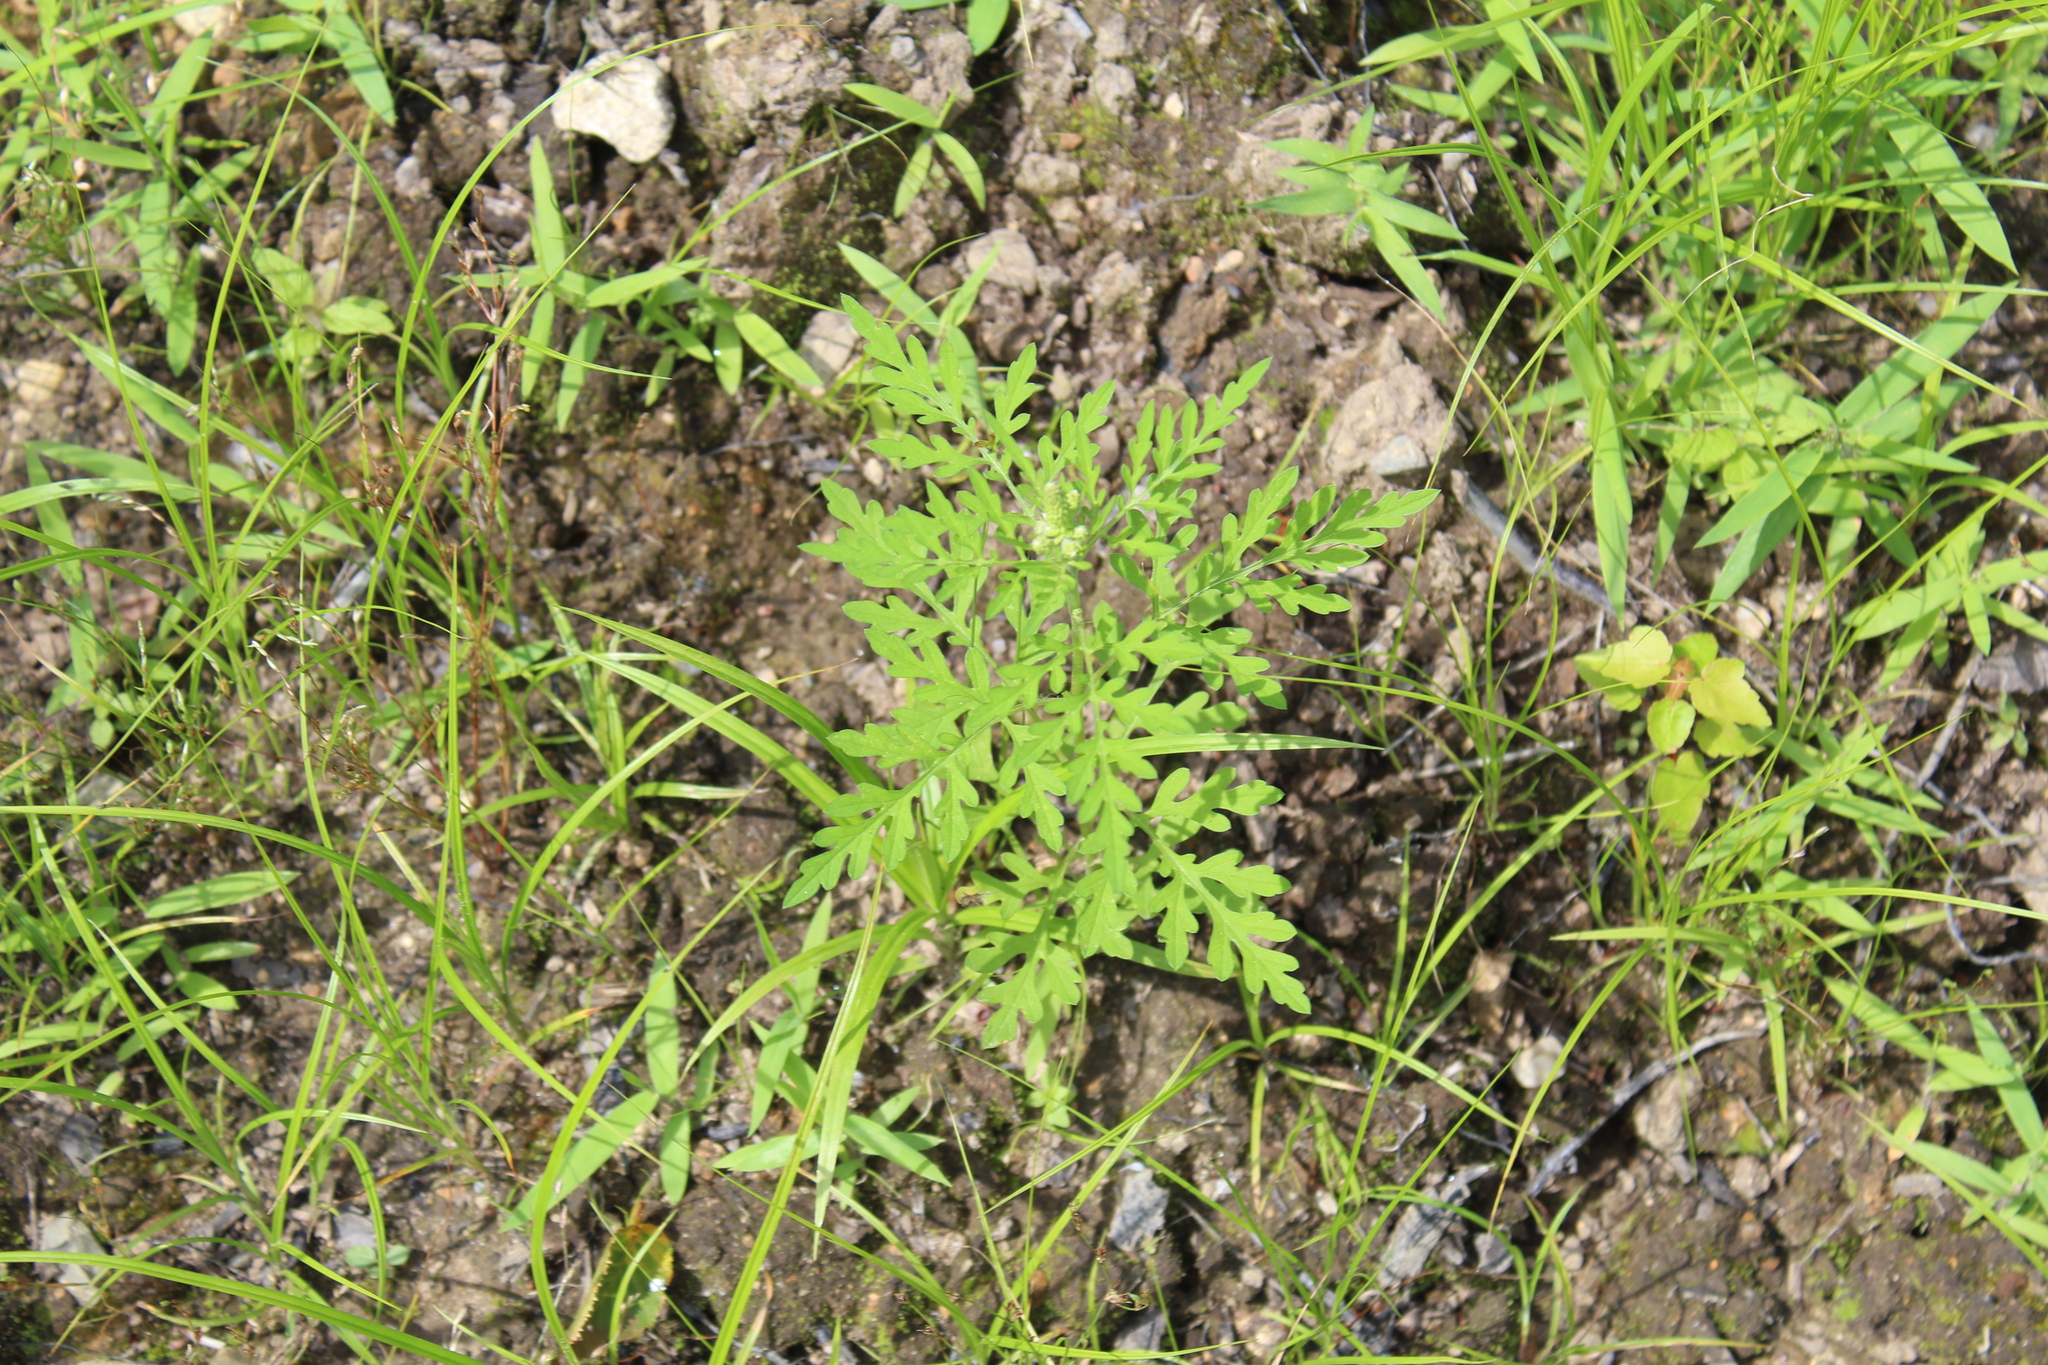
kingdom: Plantae
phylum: Tracheophyta
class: Magnoliopsida
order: Asterales
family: Asteraceae
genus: Ambrosia
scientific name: Ambrosia artemisiifolia
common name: Annual ragweed
